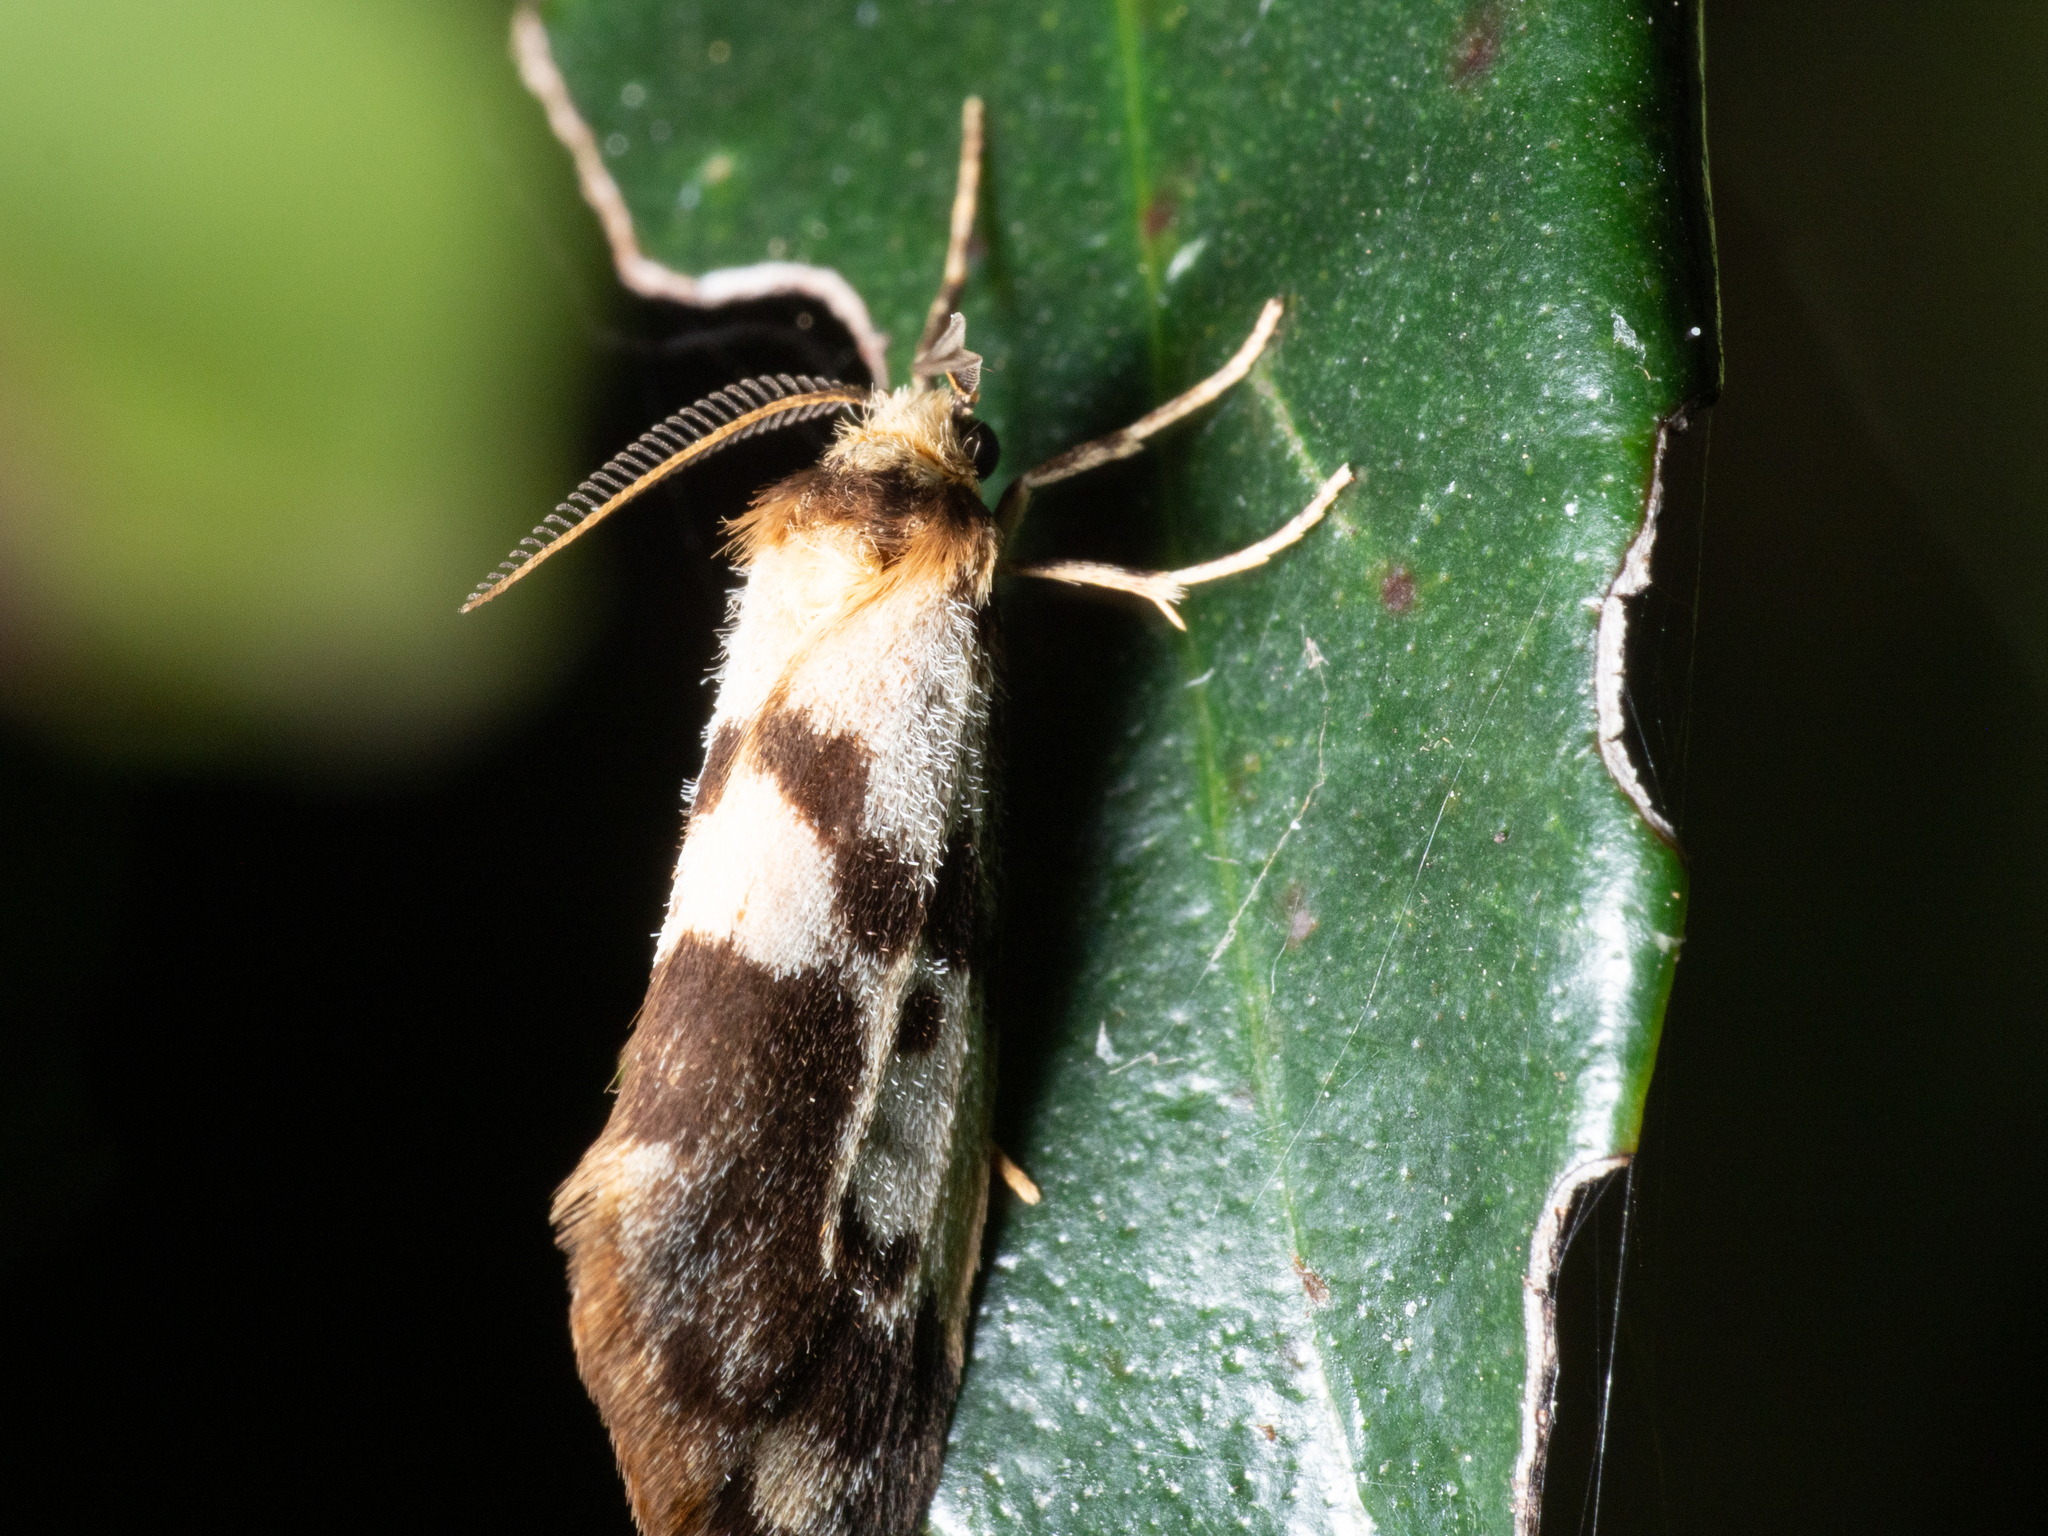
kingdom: Animalia
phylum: Arthropoda
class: Insecta
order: Lepidoptera
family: Erebidae
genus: Anestia
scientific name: Anestia
